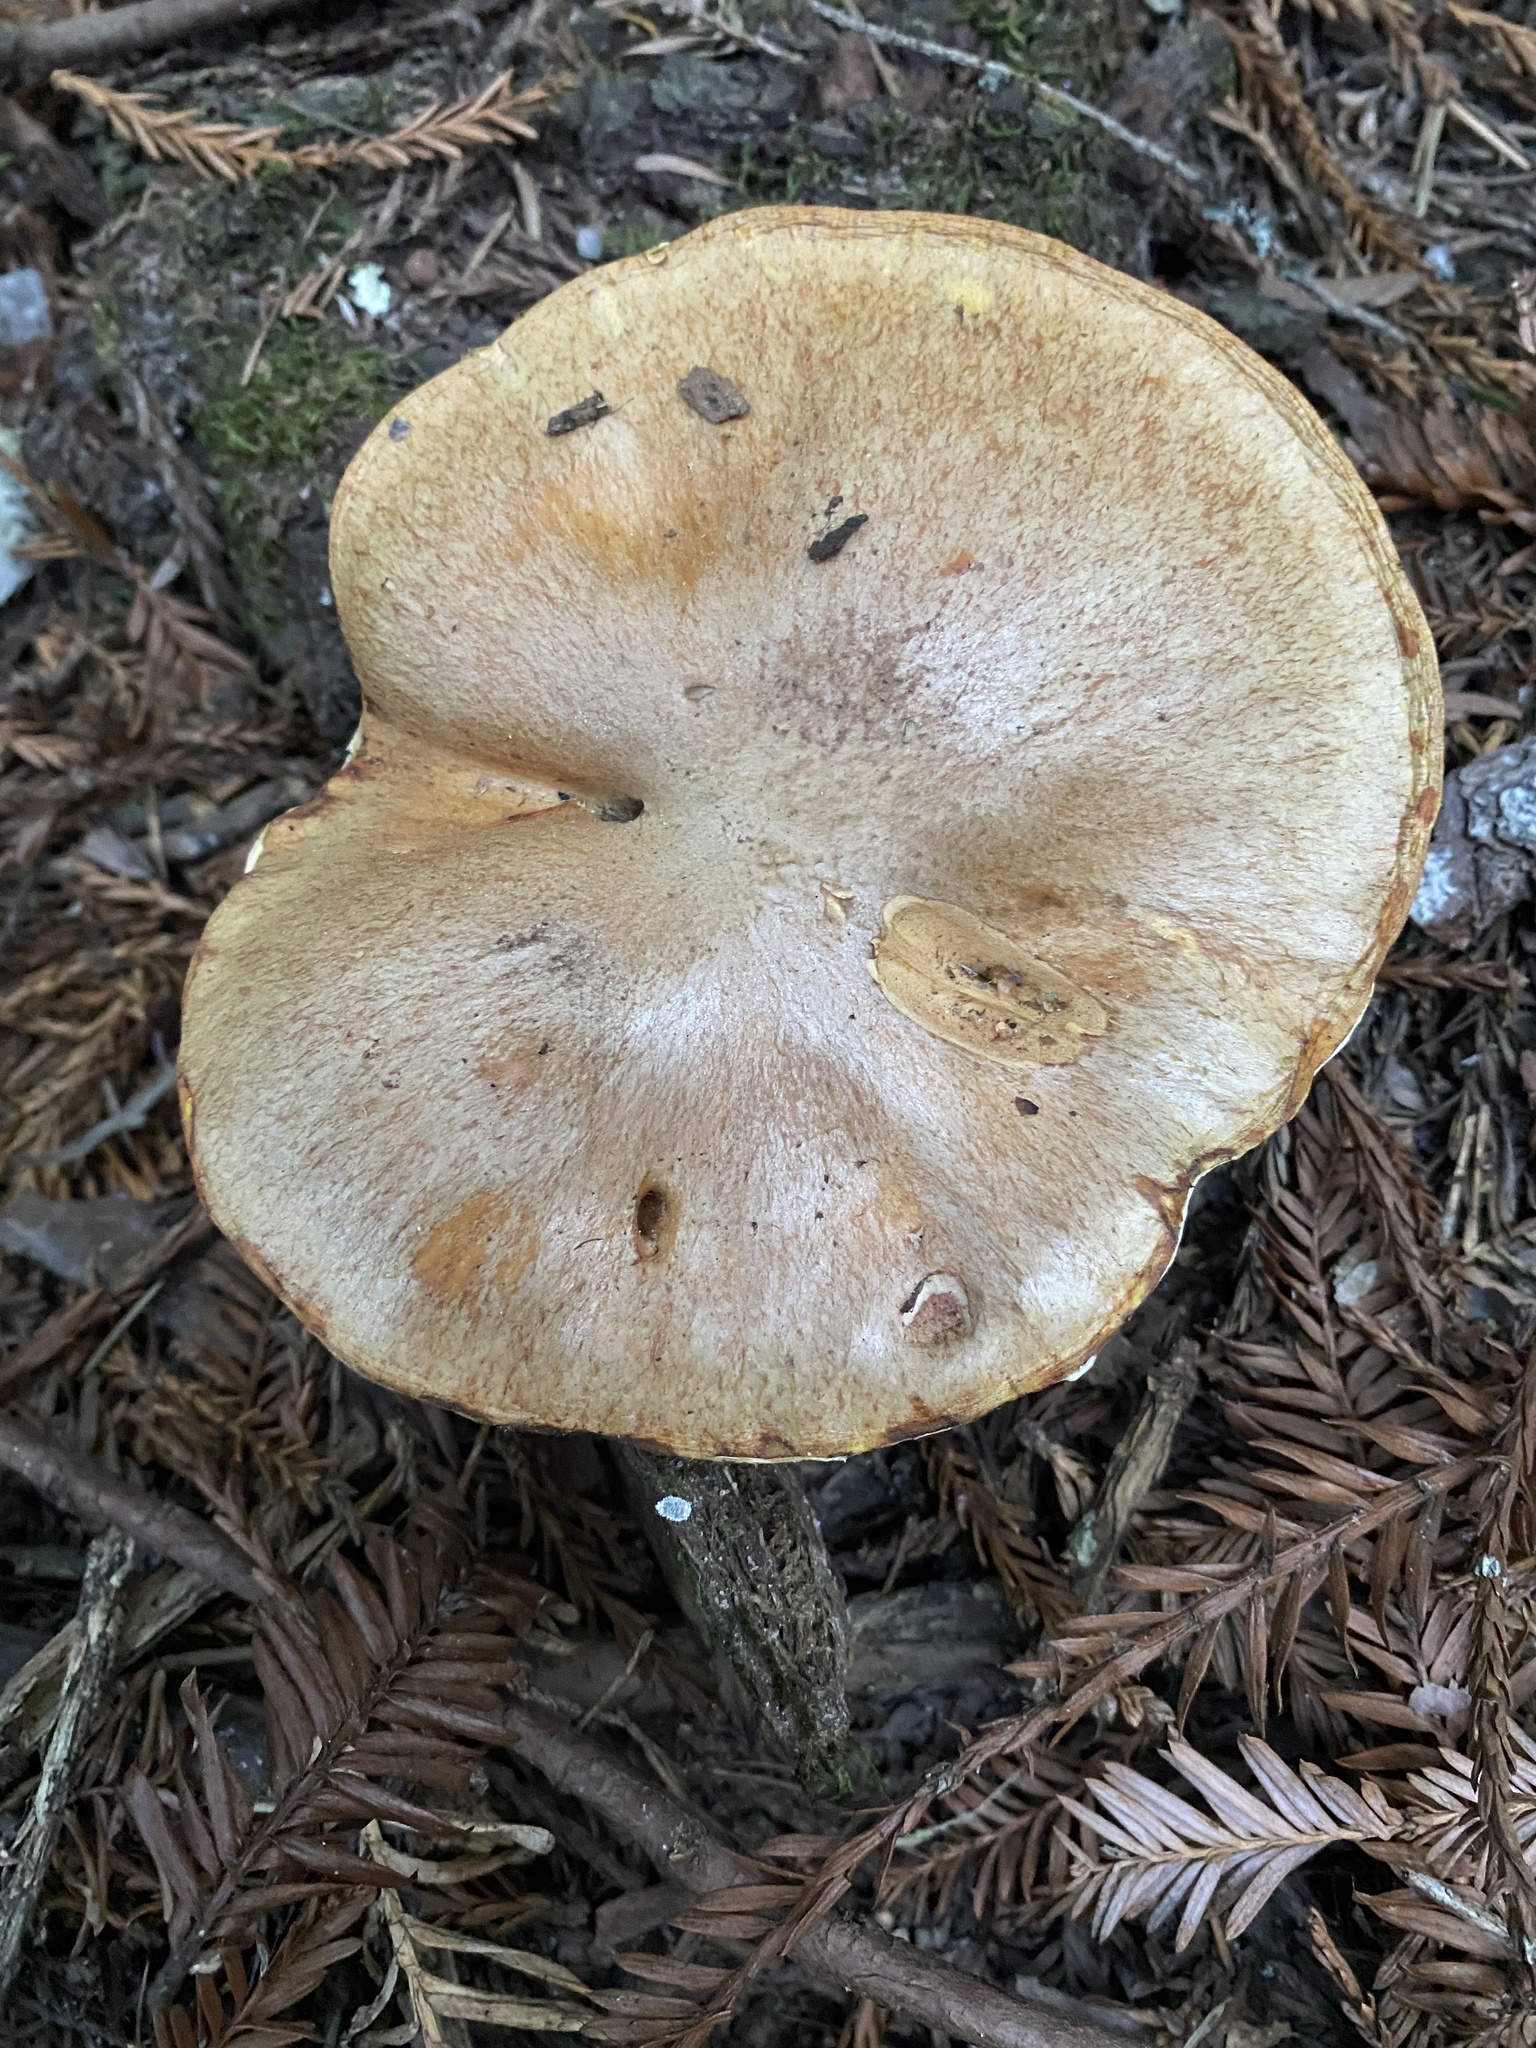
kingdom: Fungi
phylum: Basidiomycota
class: Agaricomycetes
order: Boletales
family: Suillaceae
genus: Suillus
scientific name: Suillus caerulescens
